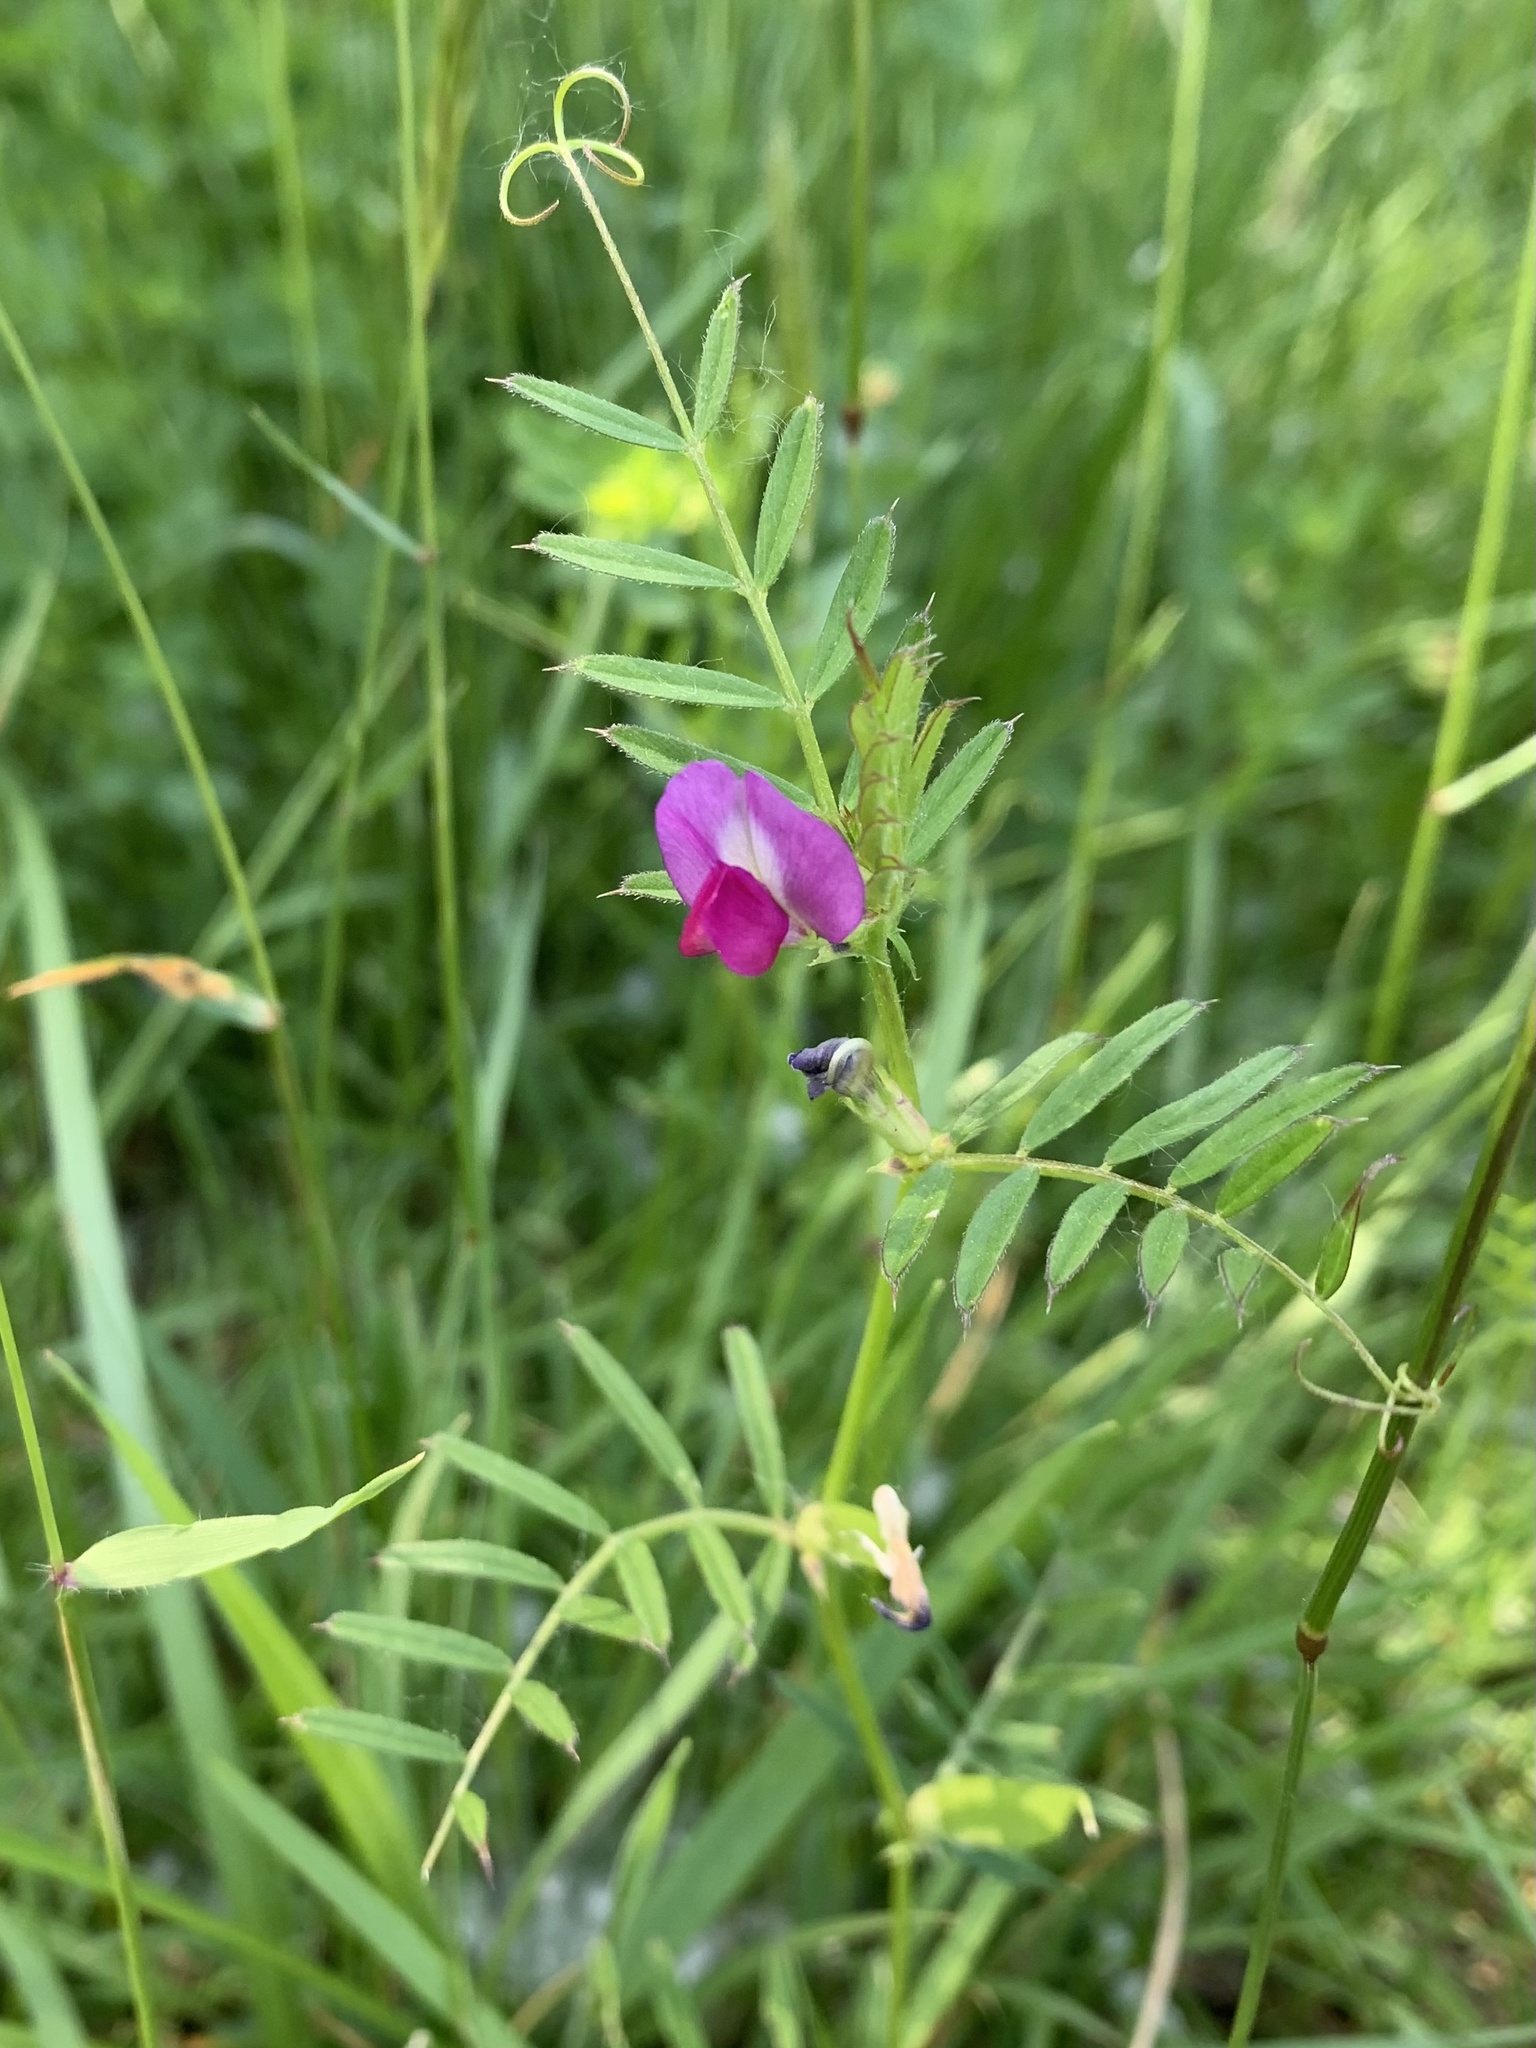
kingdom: Plantae
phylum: Tracheophyta
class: Magnoliopsida
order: Fabales
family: Fabaceae
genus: Vicia
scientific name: Vicia sativa
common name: Garden vetch
